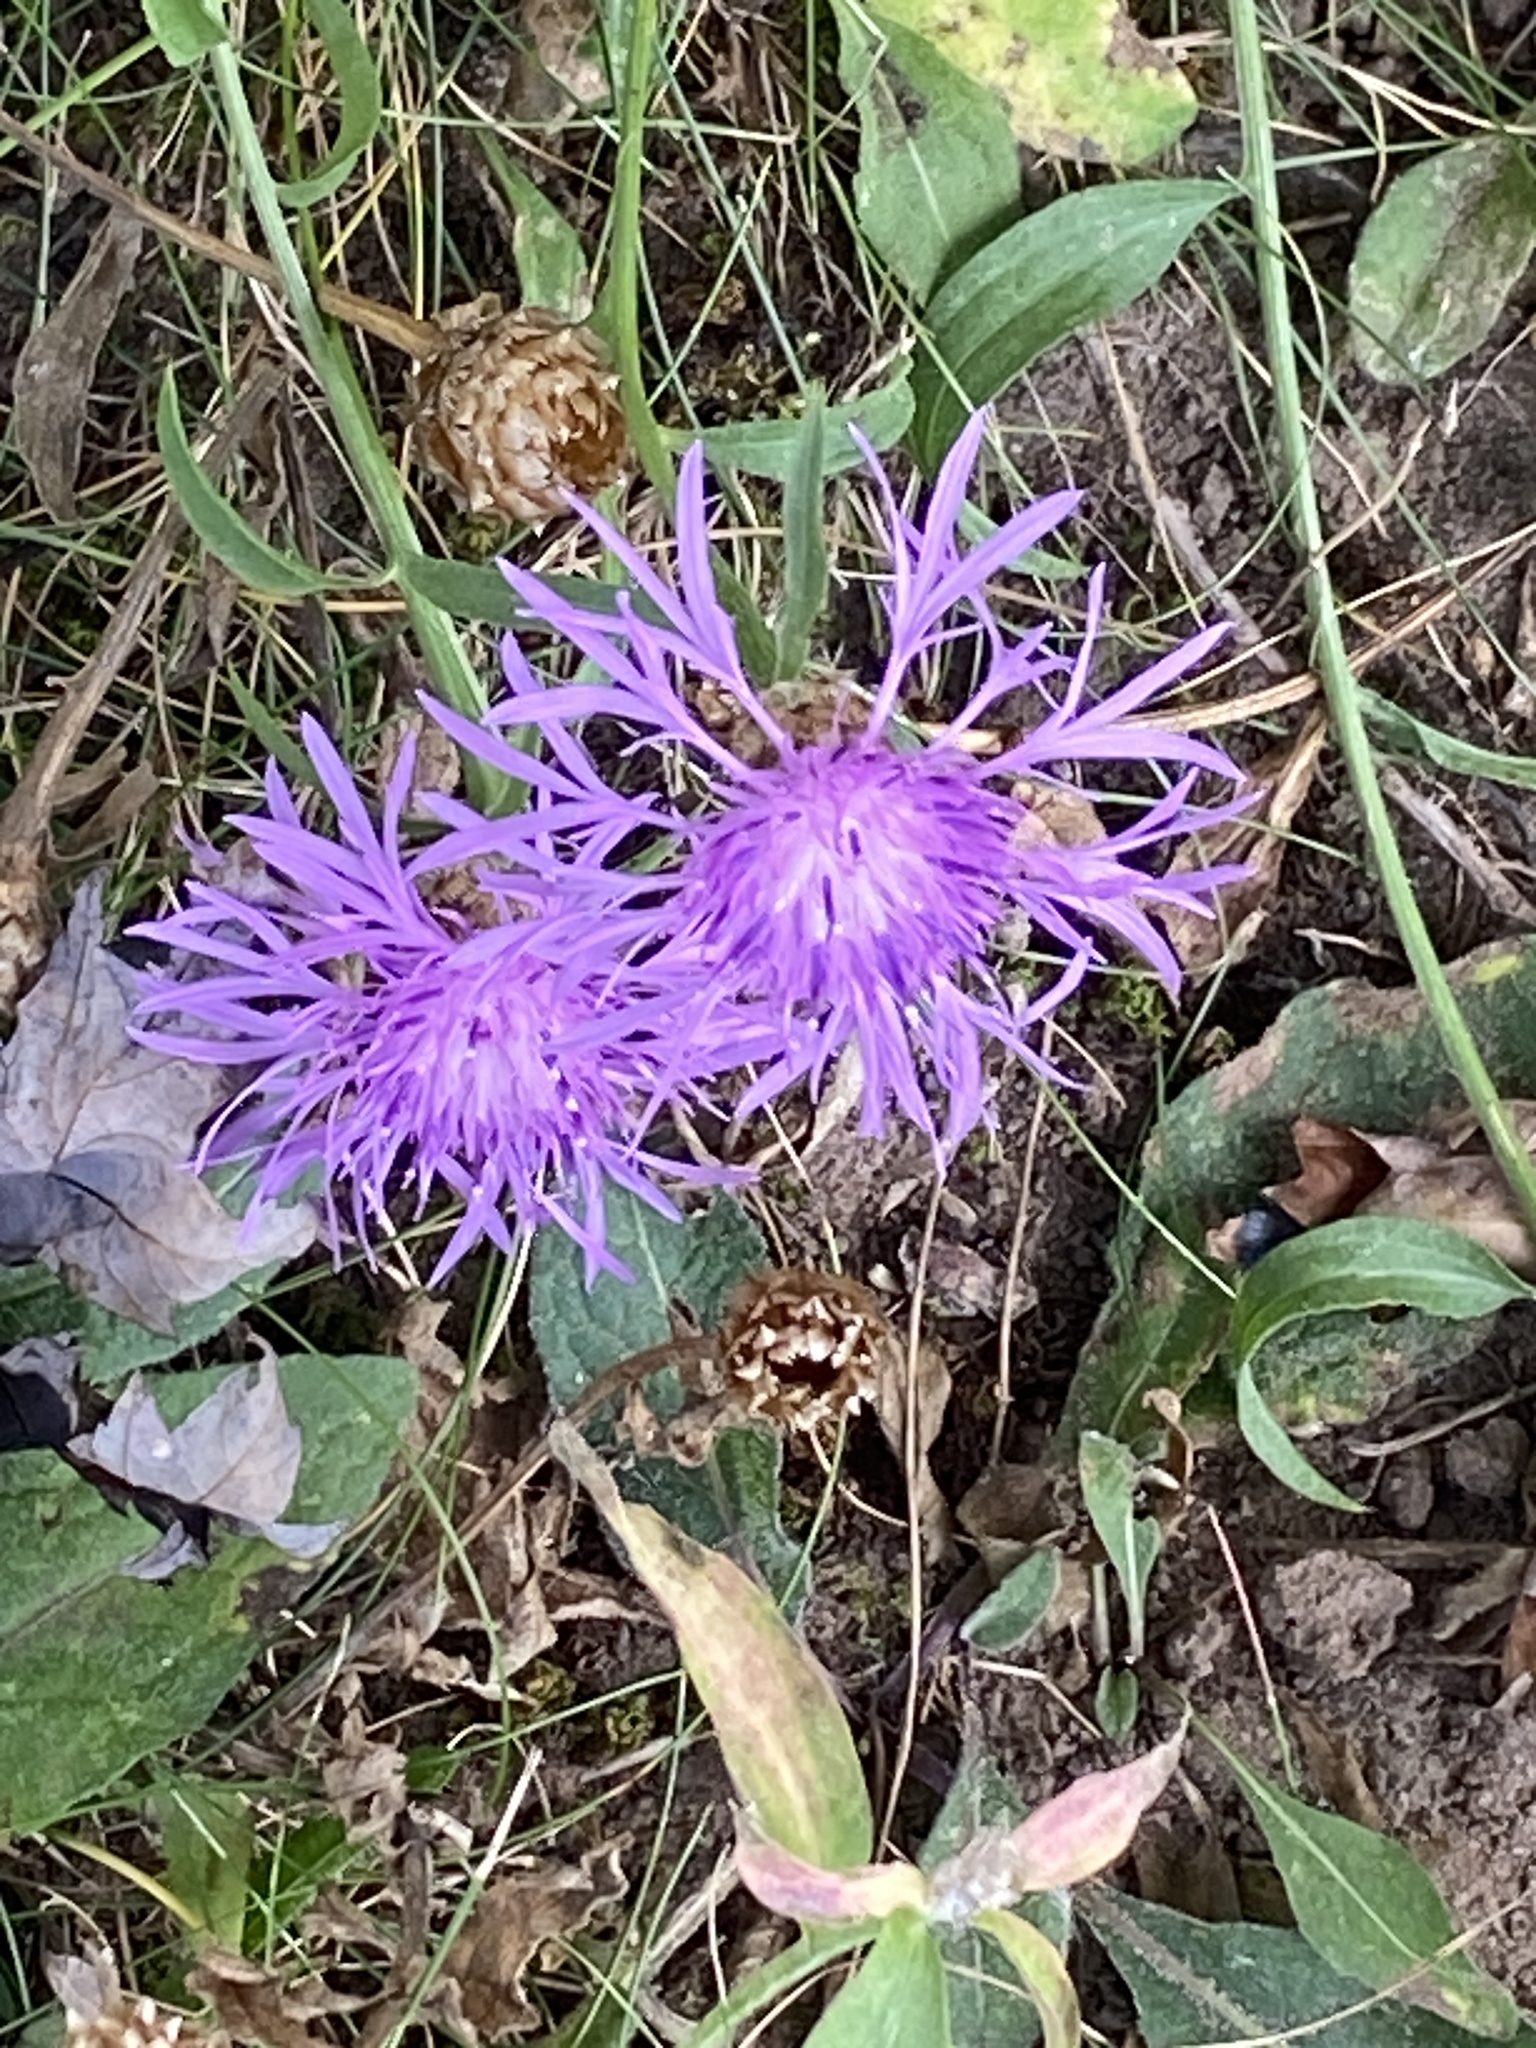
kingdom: Plantae
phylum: Tracheophyta
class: Magnoliopsida
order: Asterales
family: Asteraceae
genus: Centaurea
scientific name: Centaurea jacea
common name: Brown knapweed
